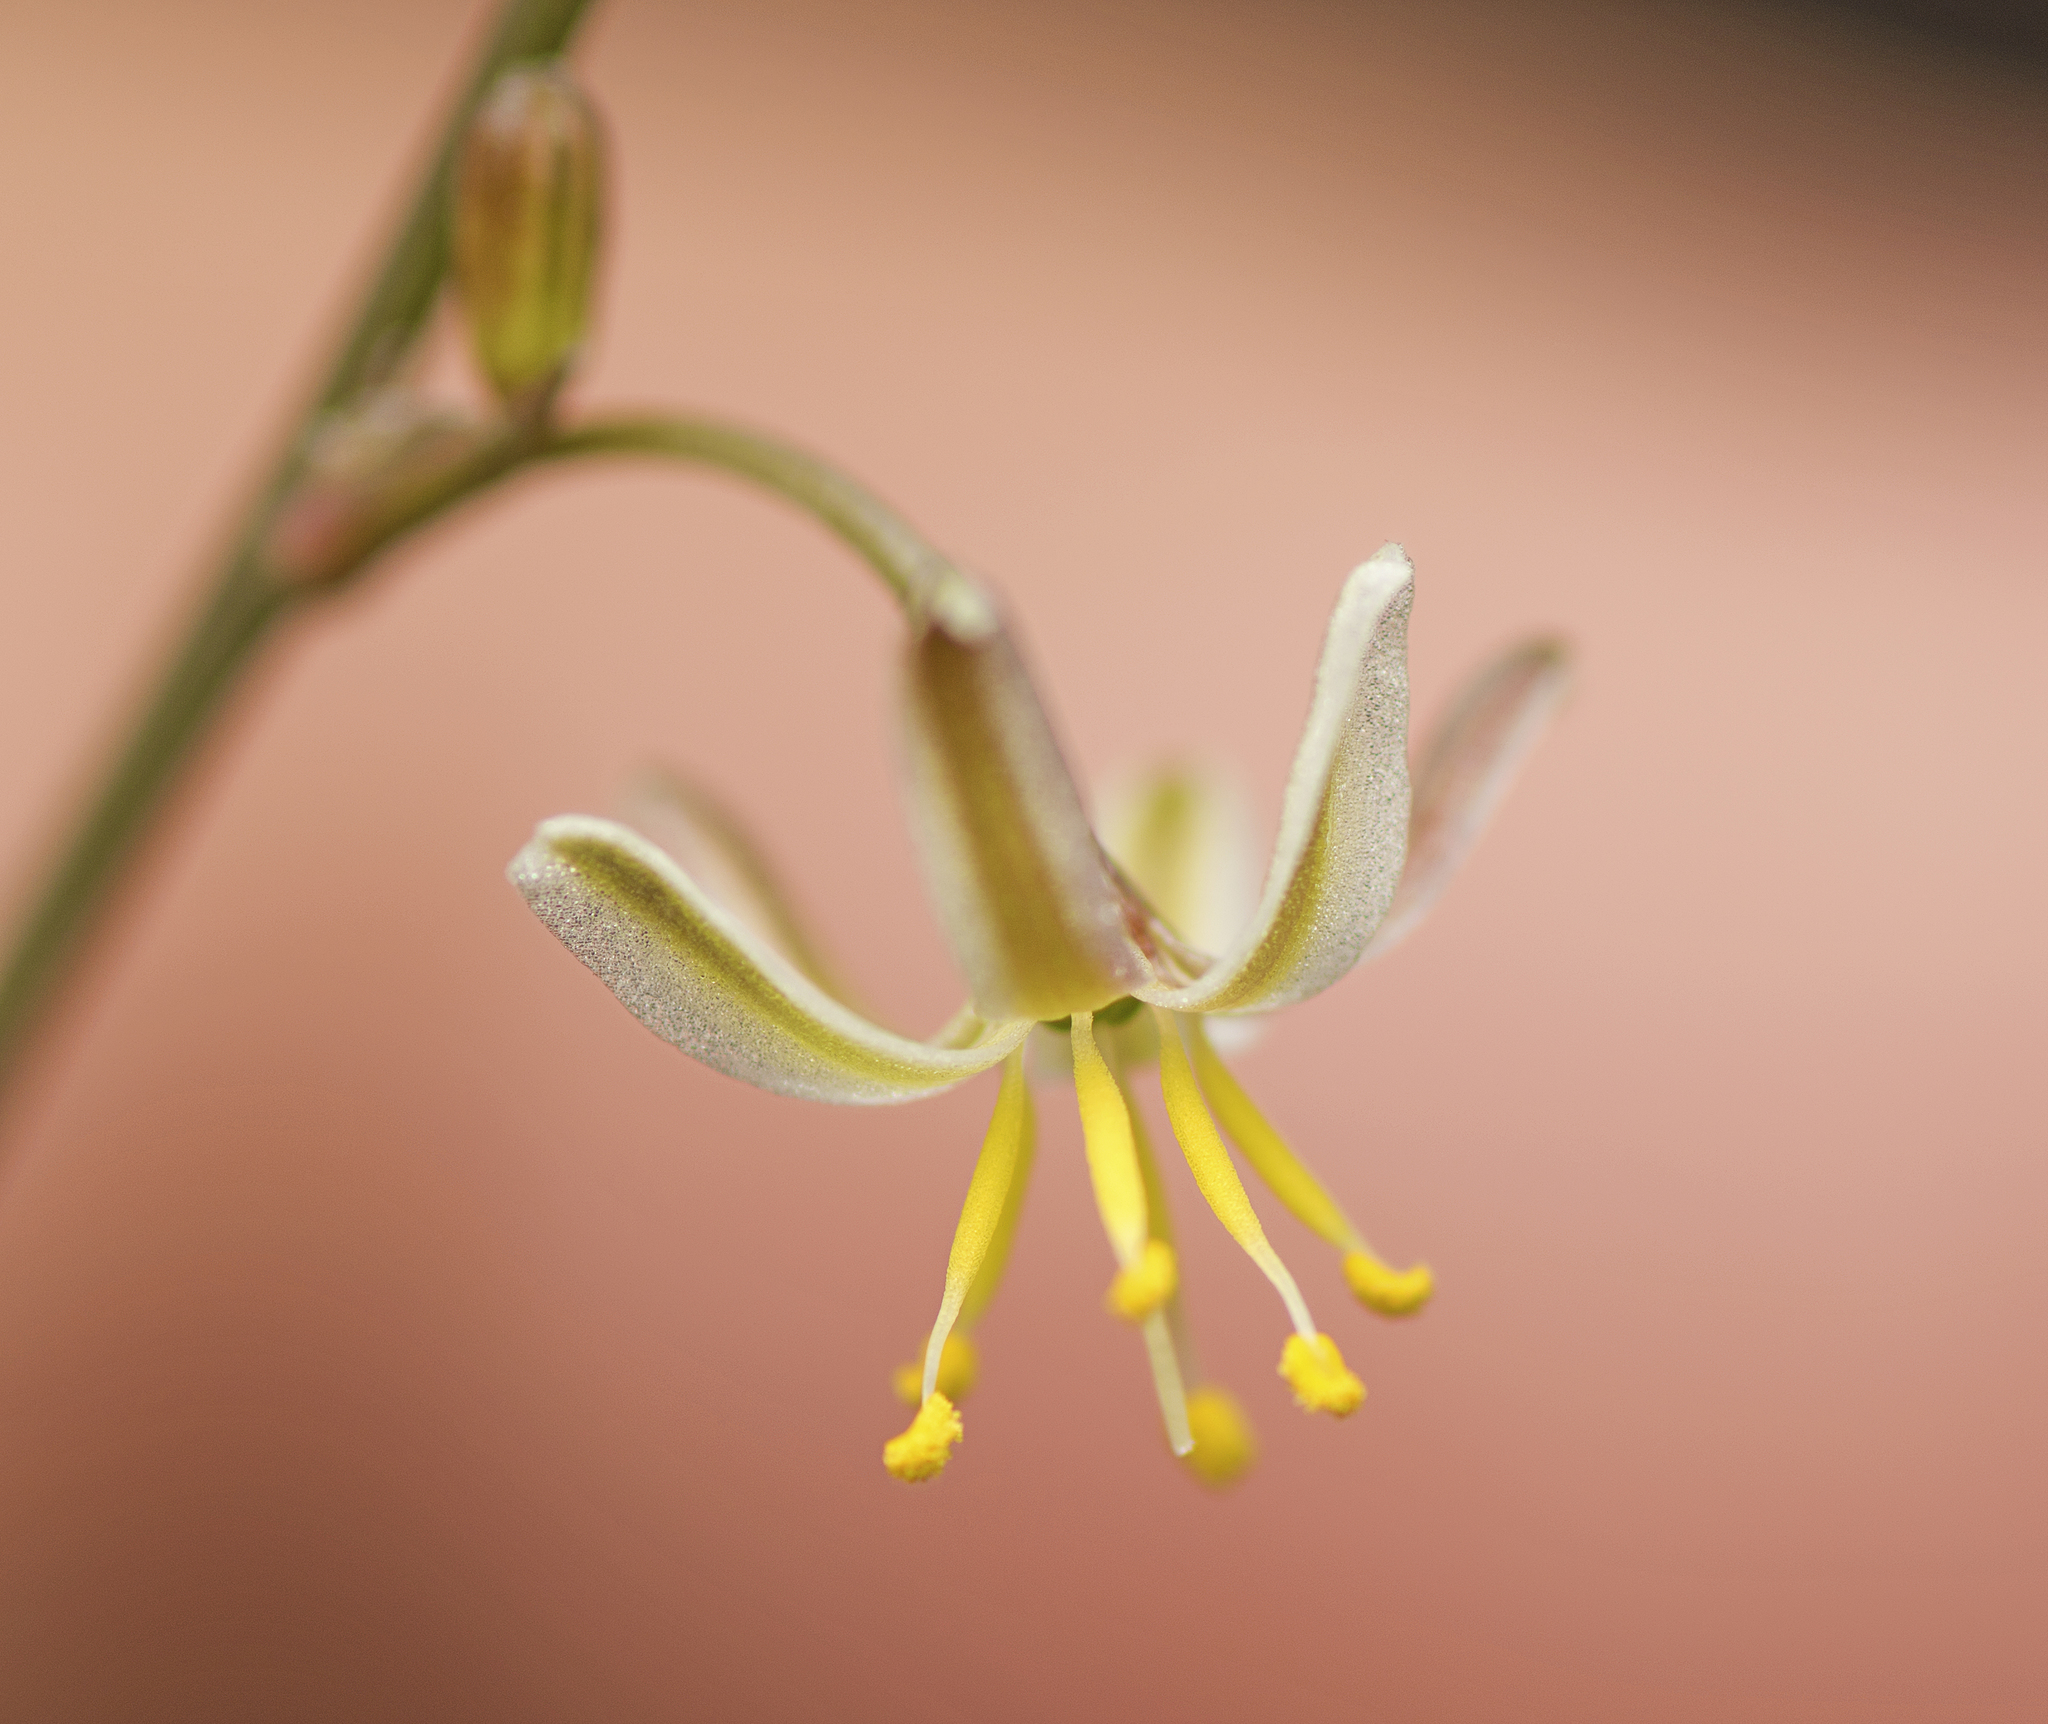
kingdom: Plantae
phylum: Tracheophyta
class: Liliopsida
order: Asparagales
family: Asphodelaceae
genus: Caesia
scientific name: Caesia
